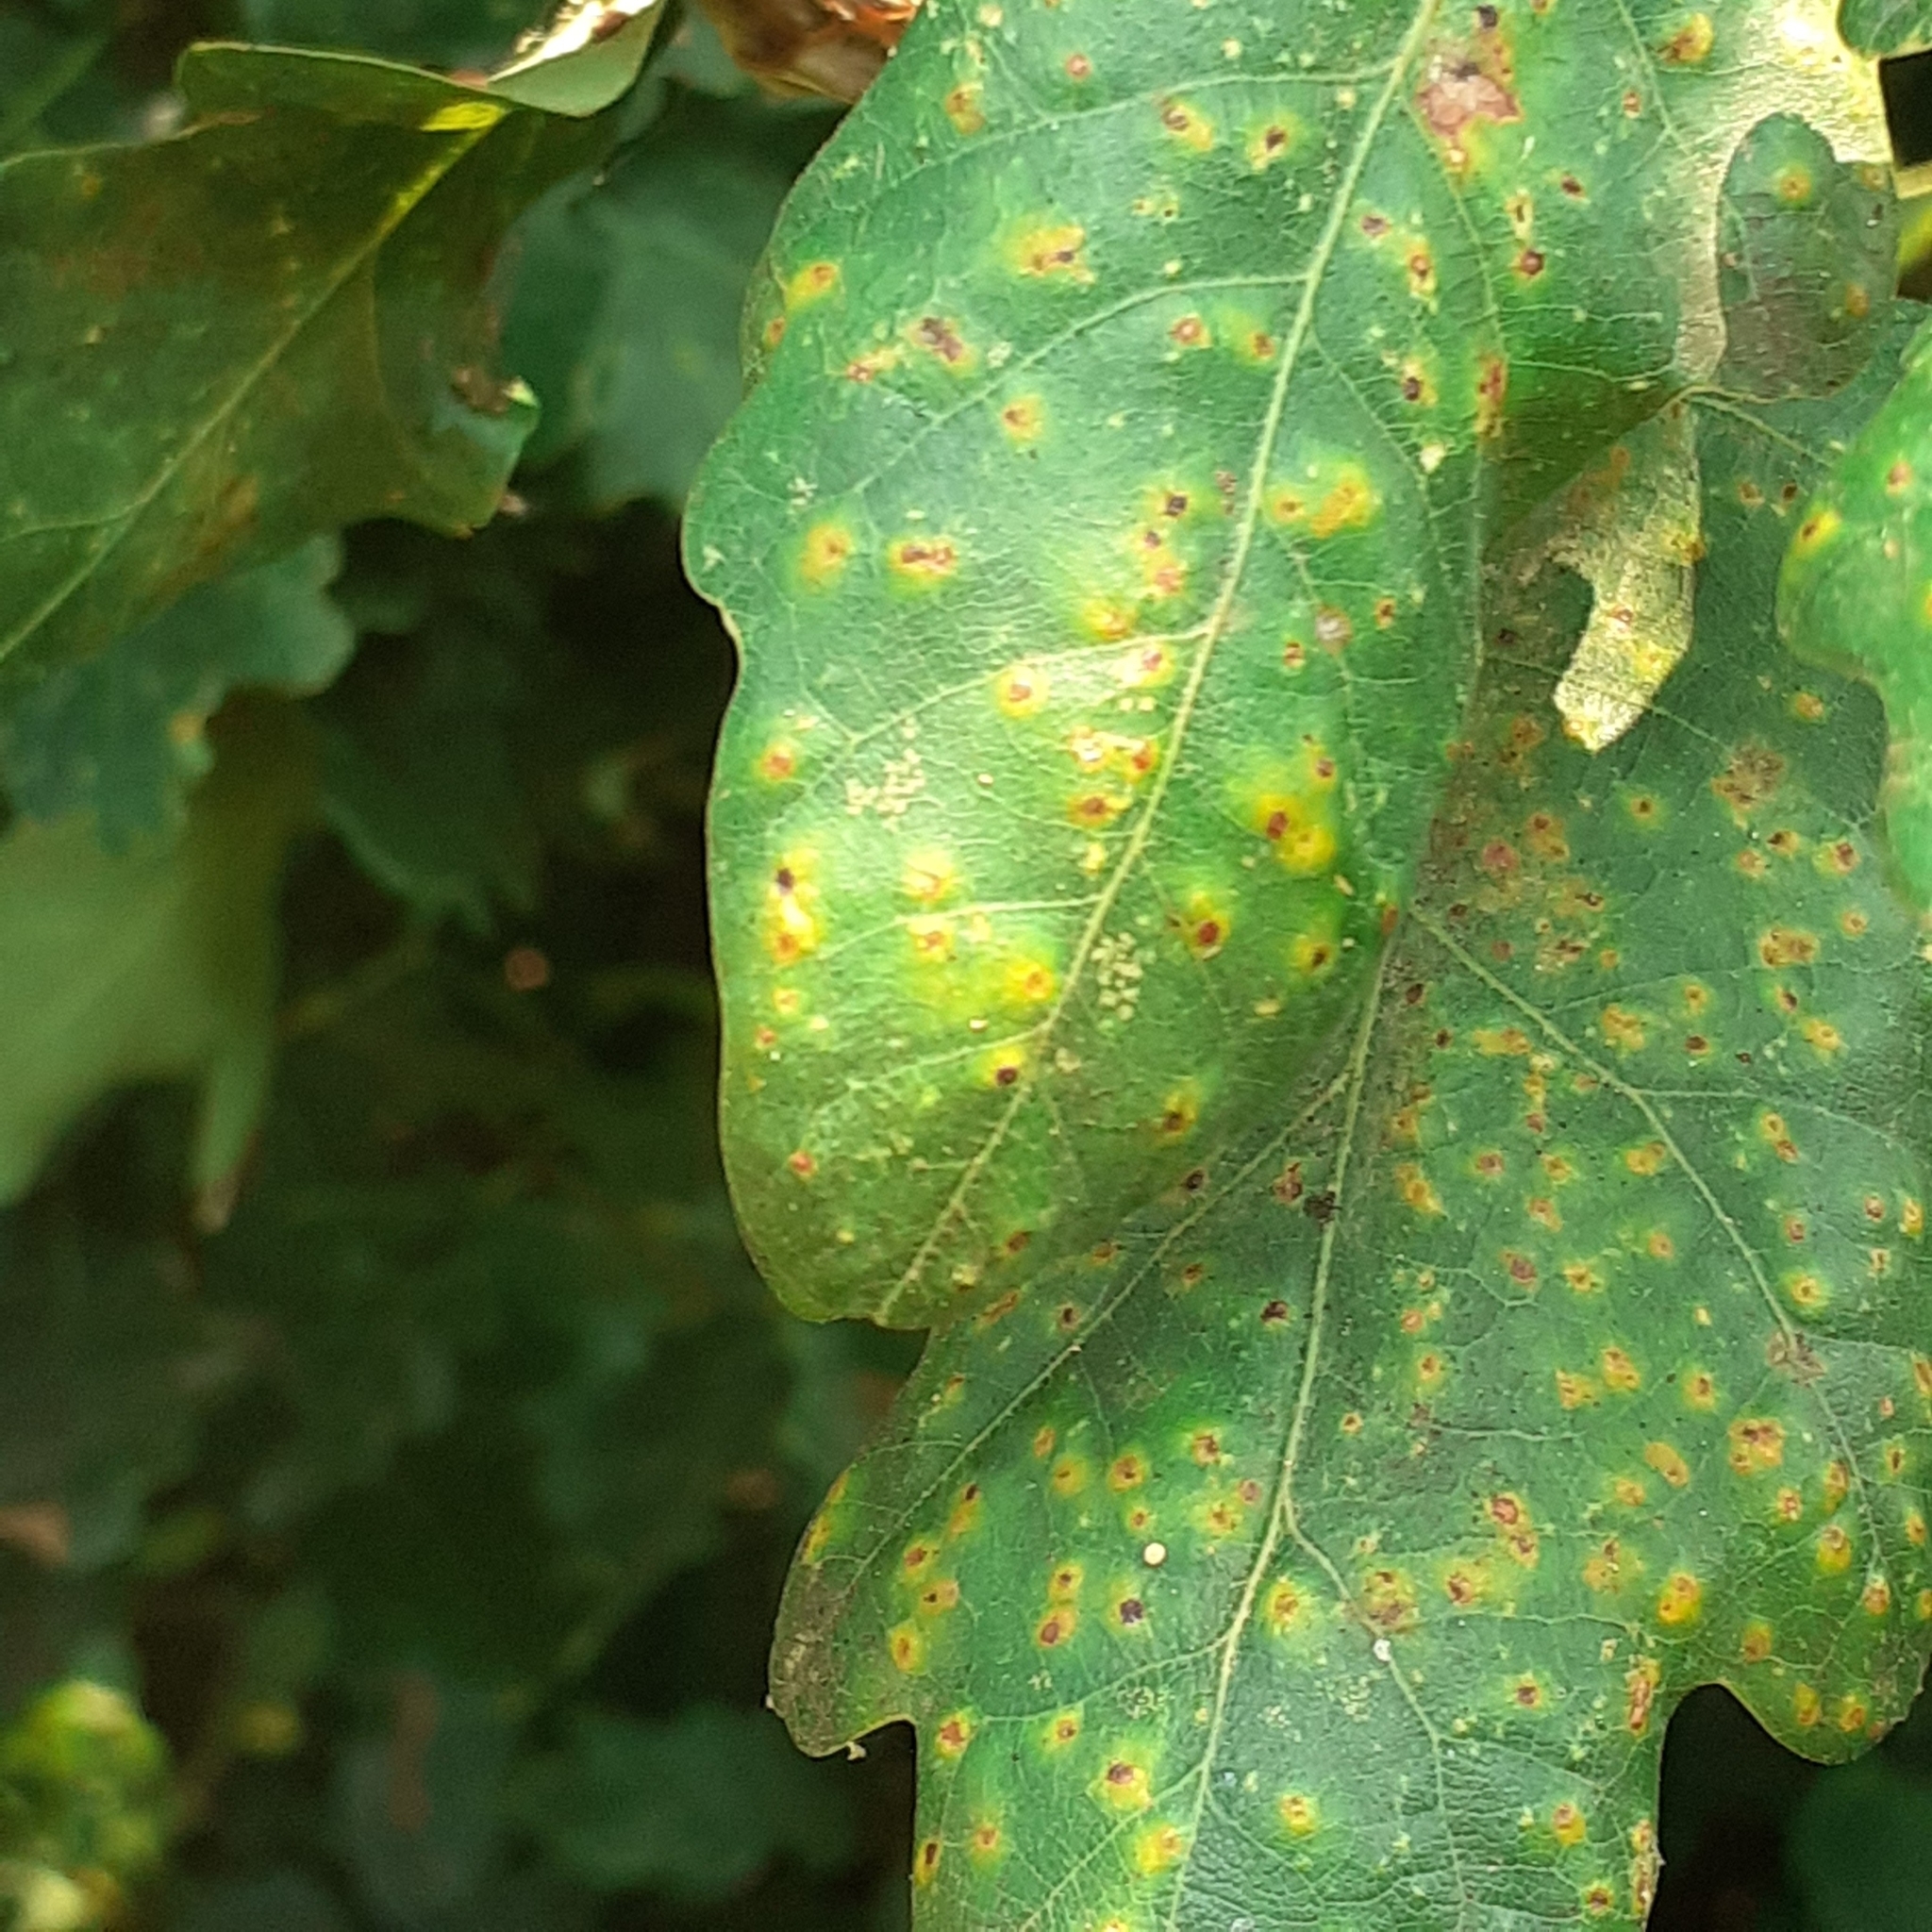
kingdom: Animalia
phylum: Arthropoda
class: Insecta
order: Hymenoptera
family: Cynipidae
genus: Neuroterus
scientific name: Neuroterus numismalis
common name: Silk-button spangle gall
